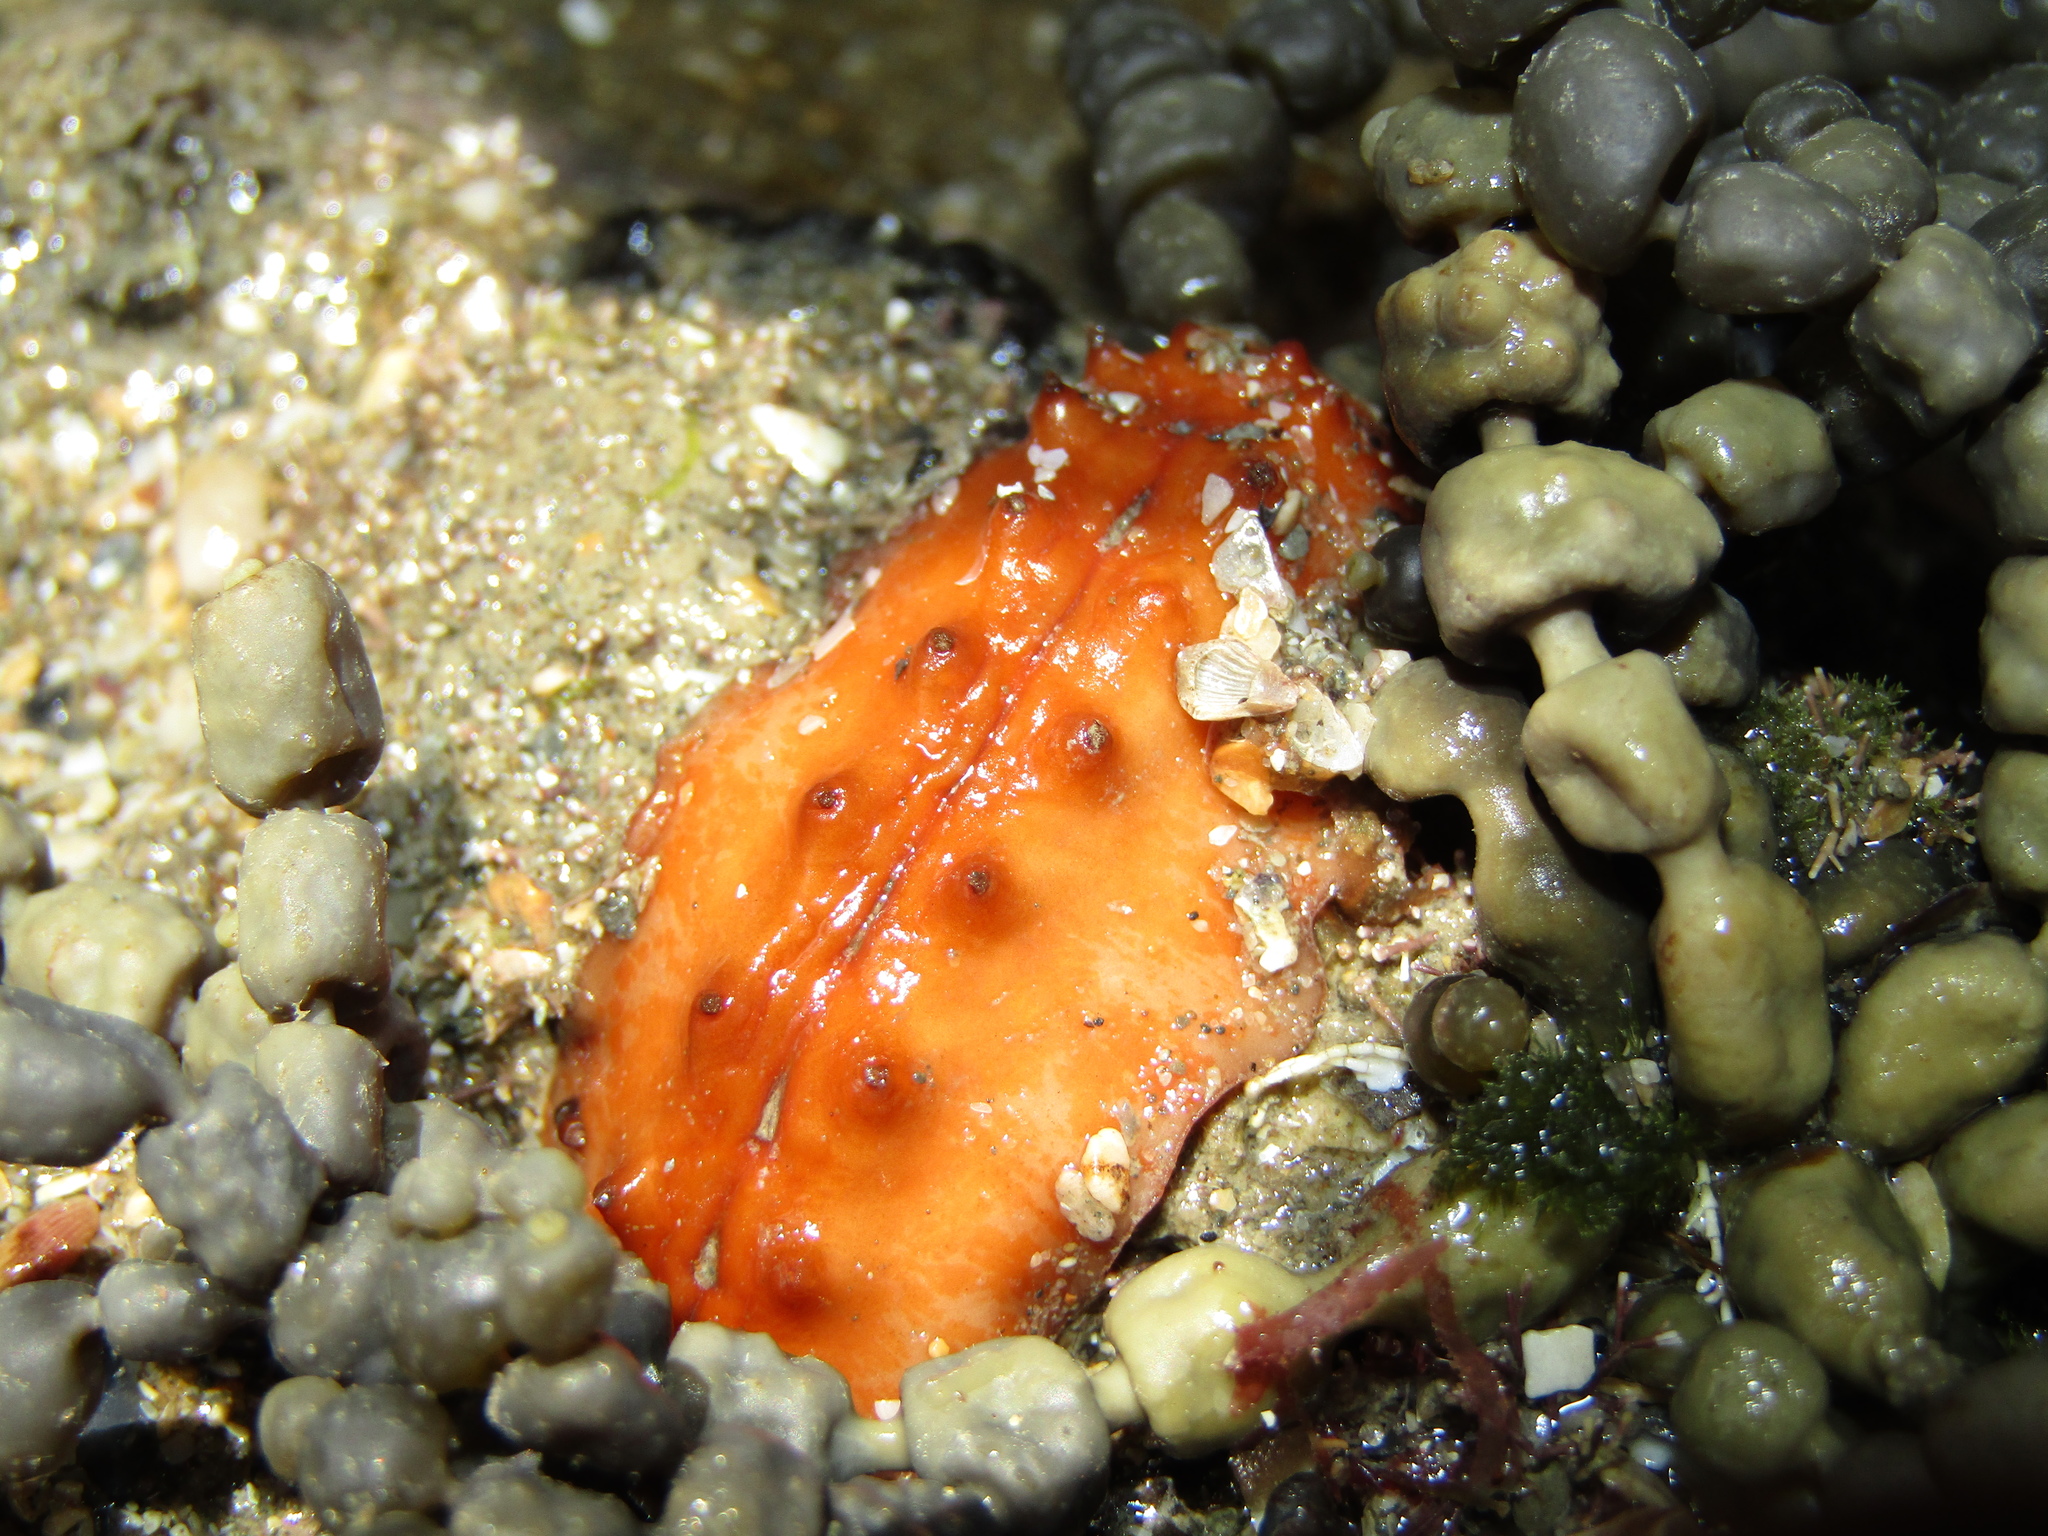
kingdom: Animalia
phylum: Mollusca
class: Polyplacophora
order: Chitonida
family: Acanthochitonidae
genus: Cryptoconchus
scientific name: Cryptoconchus porosus
